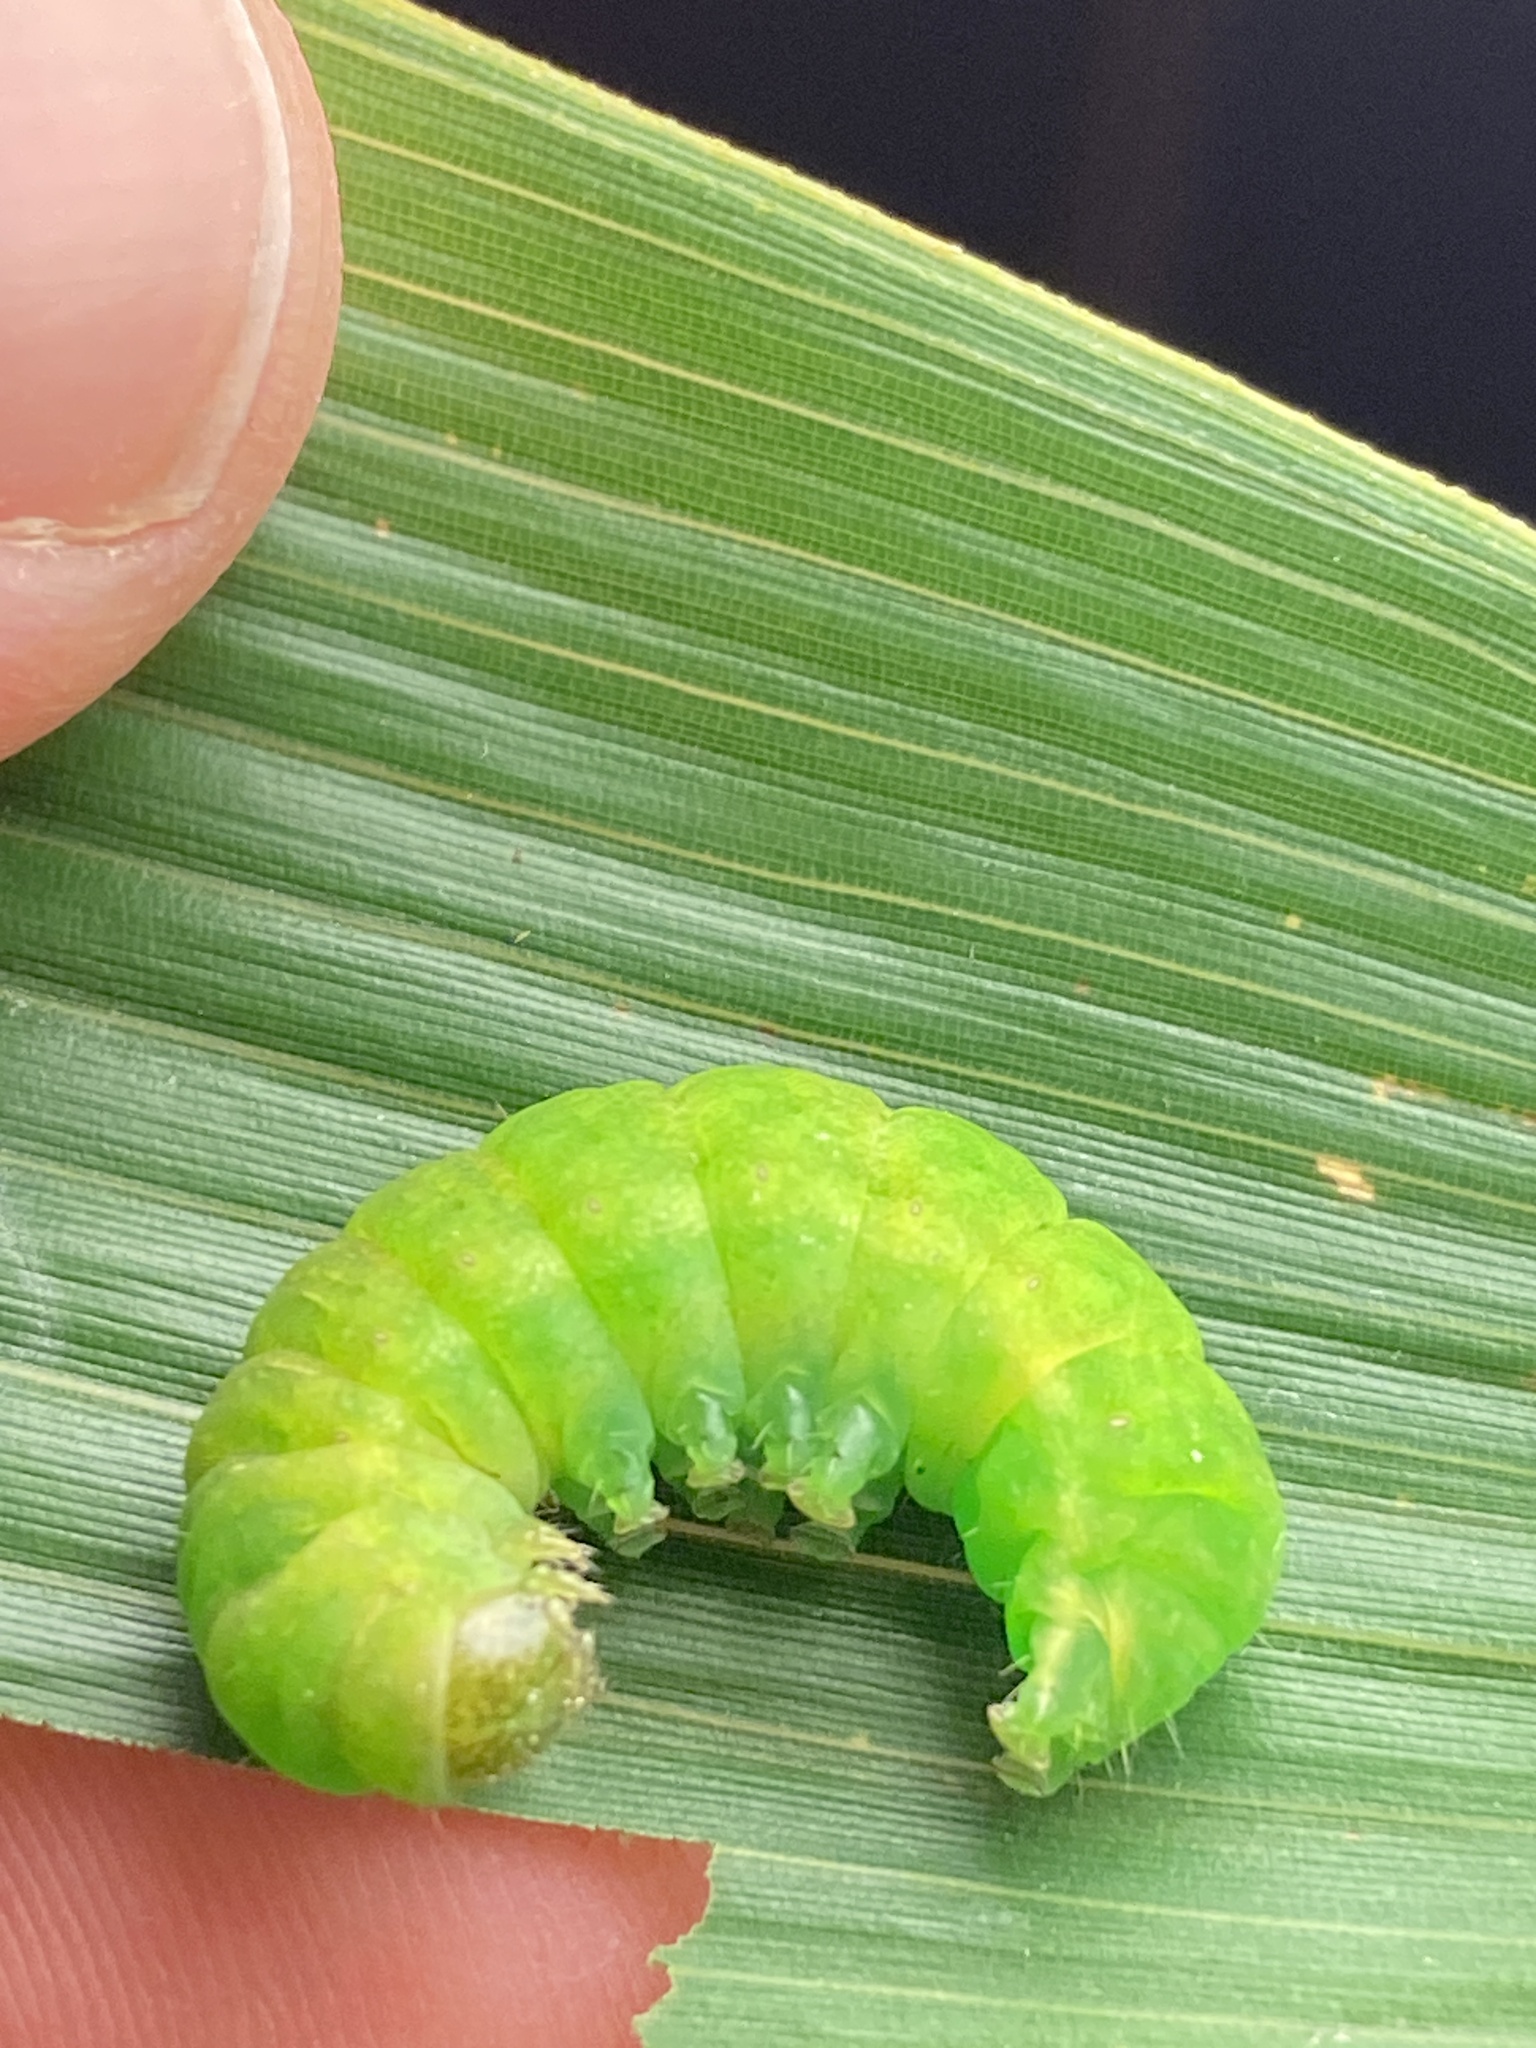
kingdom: Animalia
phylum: Arthropoda
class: Insecta
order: Lepidoptera
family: Noctuidae
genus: Phlogophora
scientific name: Phlogophora meticulosa
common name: Angle shades
